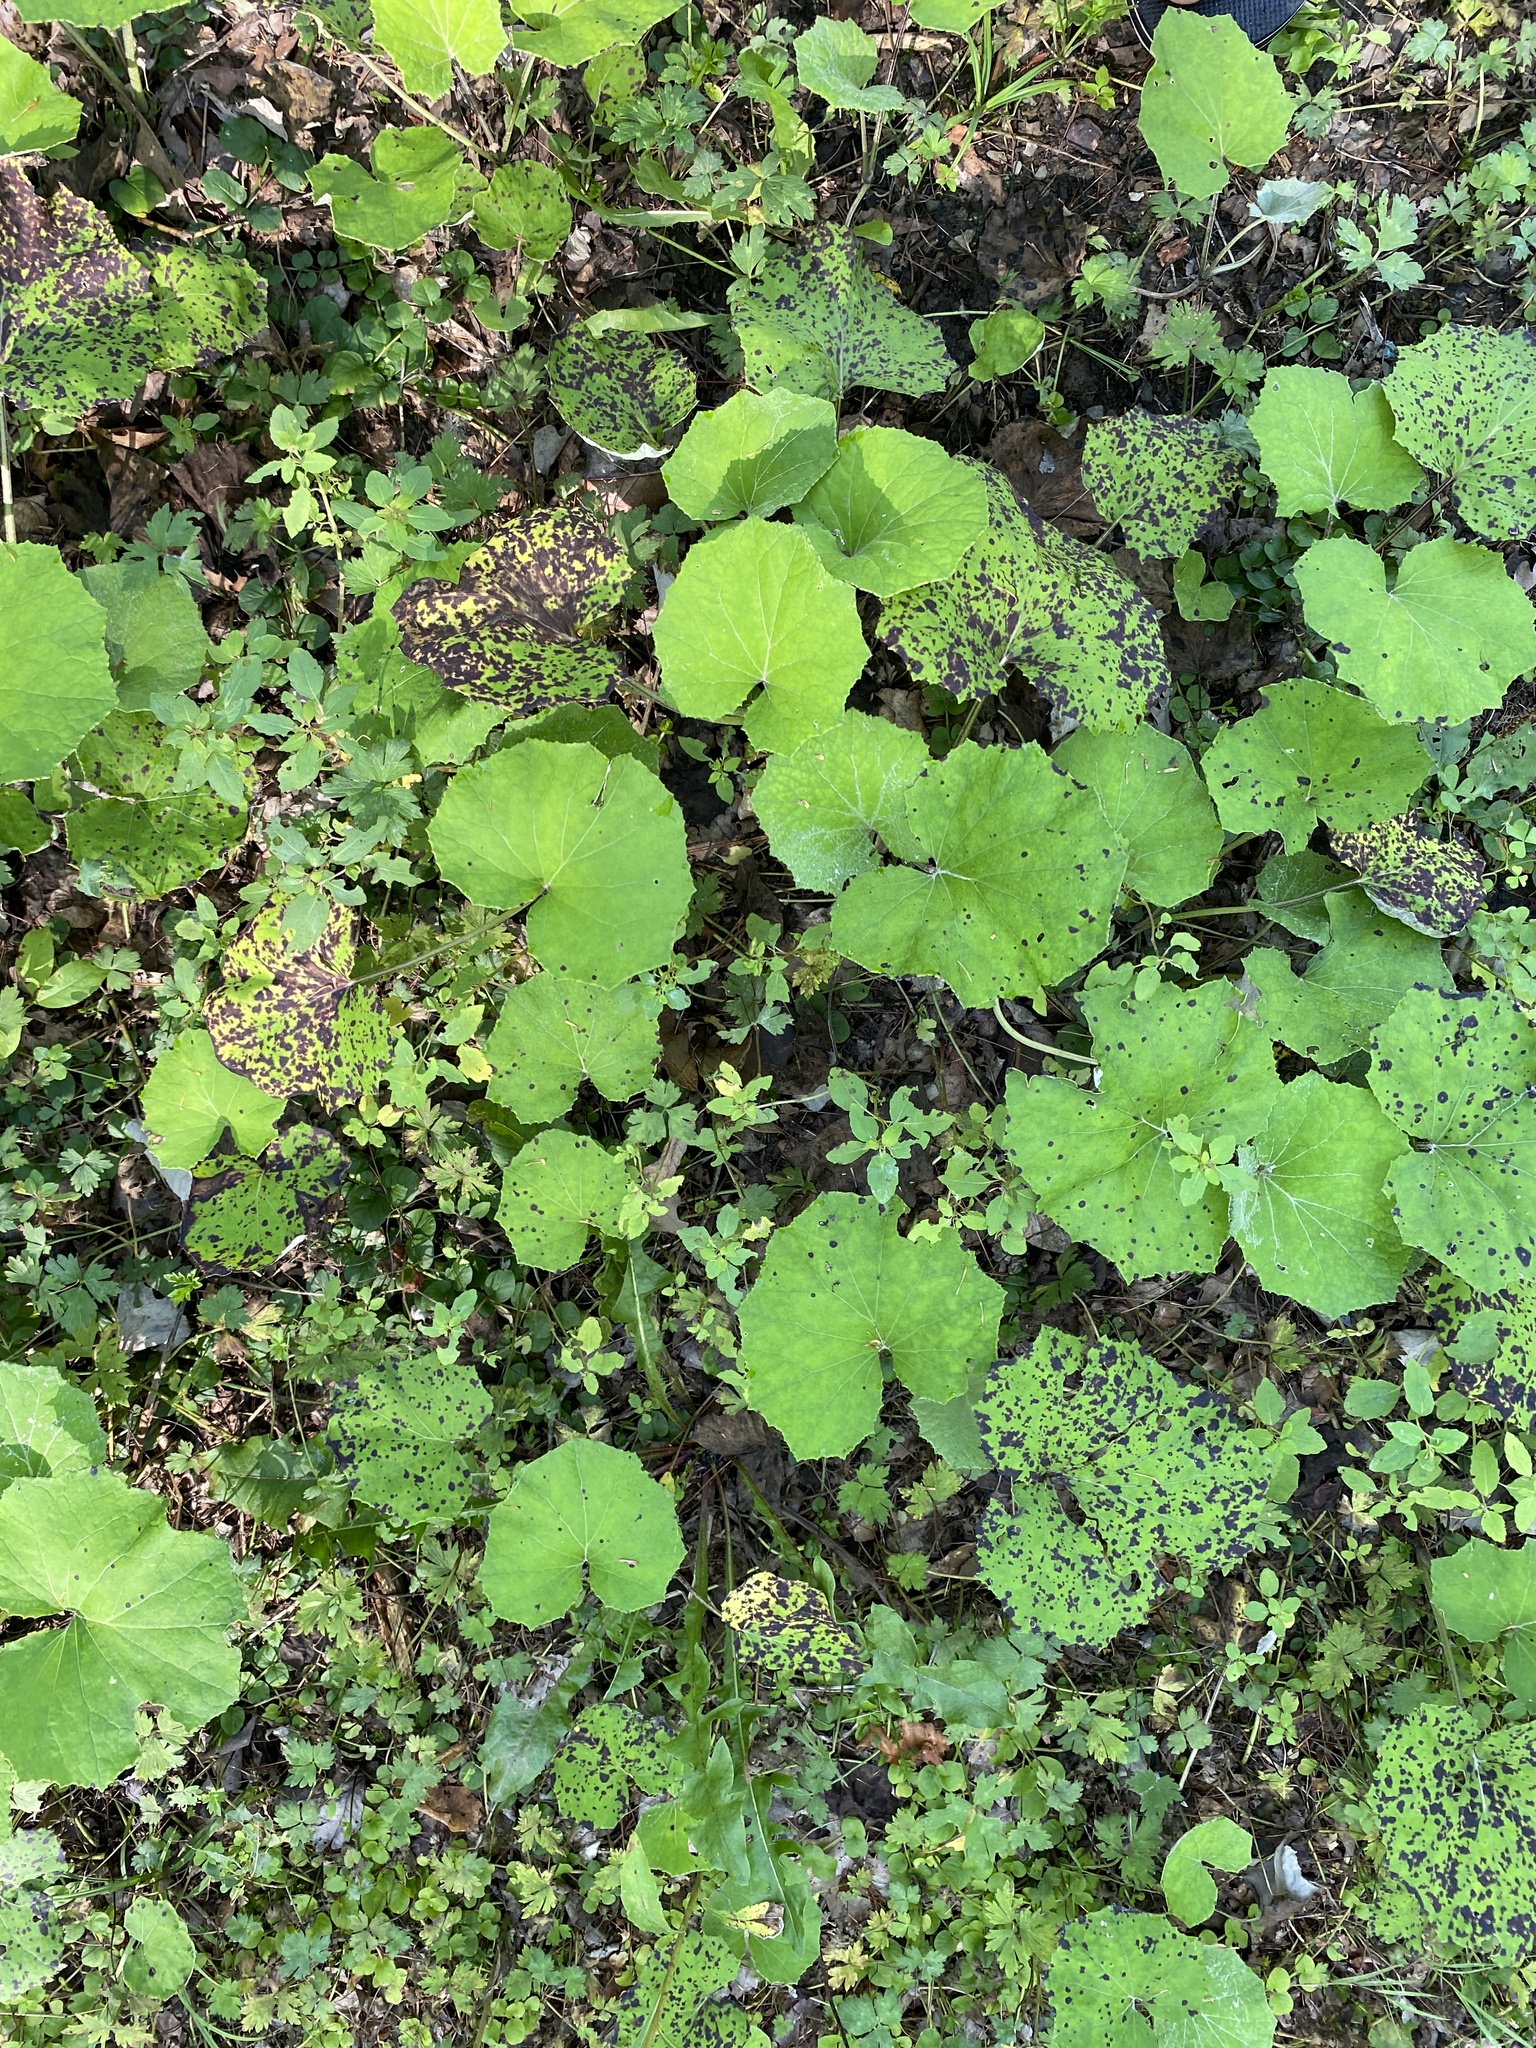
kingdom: Plantae
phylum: Tracheophyta
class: Magnoliopsida
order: Asterales
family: Asteraceae
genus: Tussilago
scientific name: Tussilago farfara
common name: Coltsfoot
